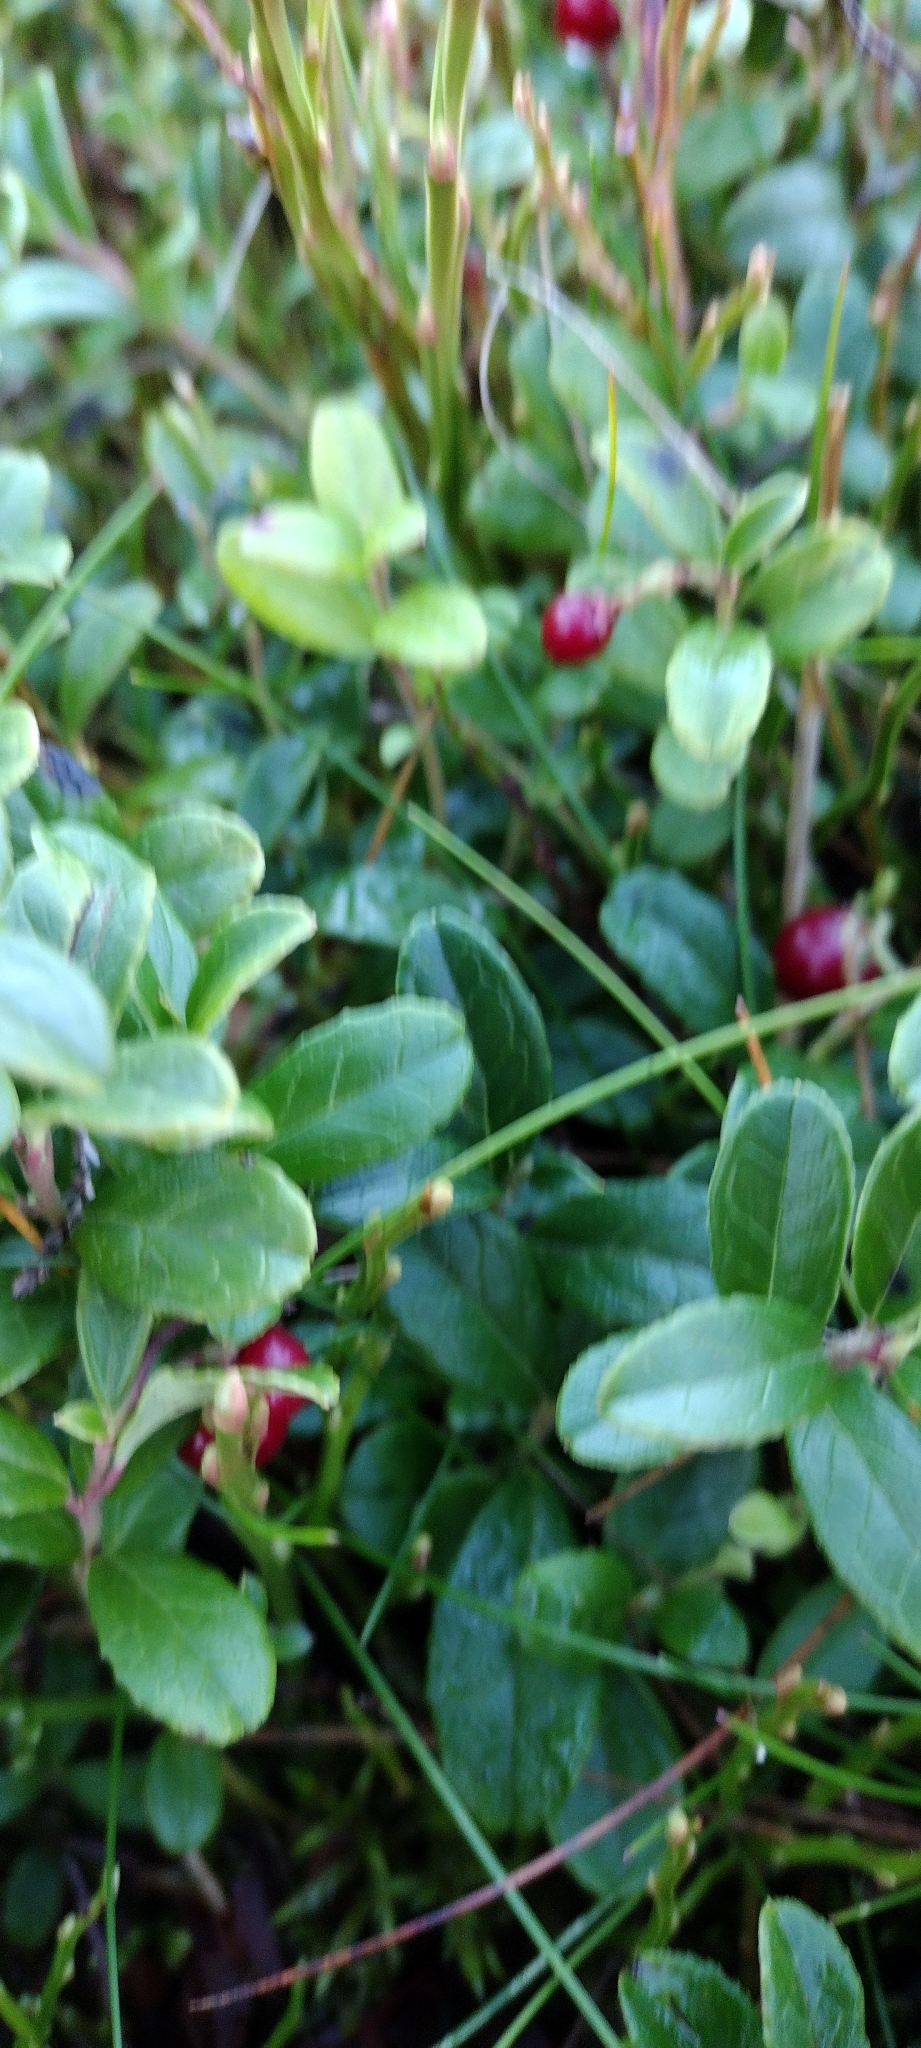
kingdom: Plantae
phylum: Tracheophyta
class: Magnoliopsida
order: Ericales
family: Ericaceae
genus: Vaccinium
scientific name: Vaccinium vitis-idaea
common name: Cowberry
